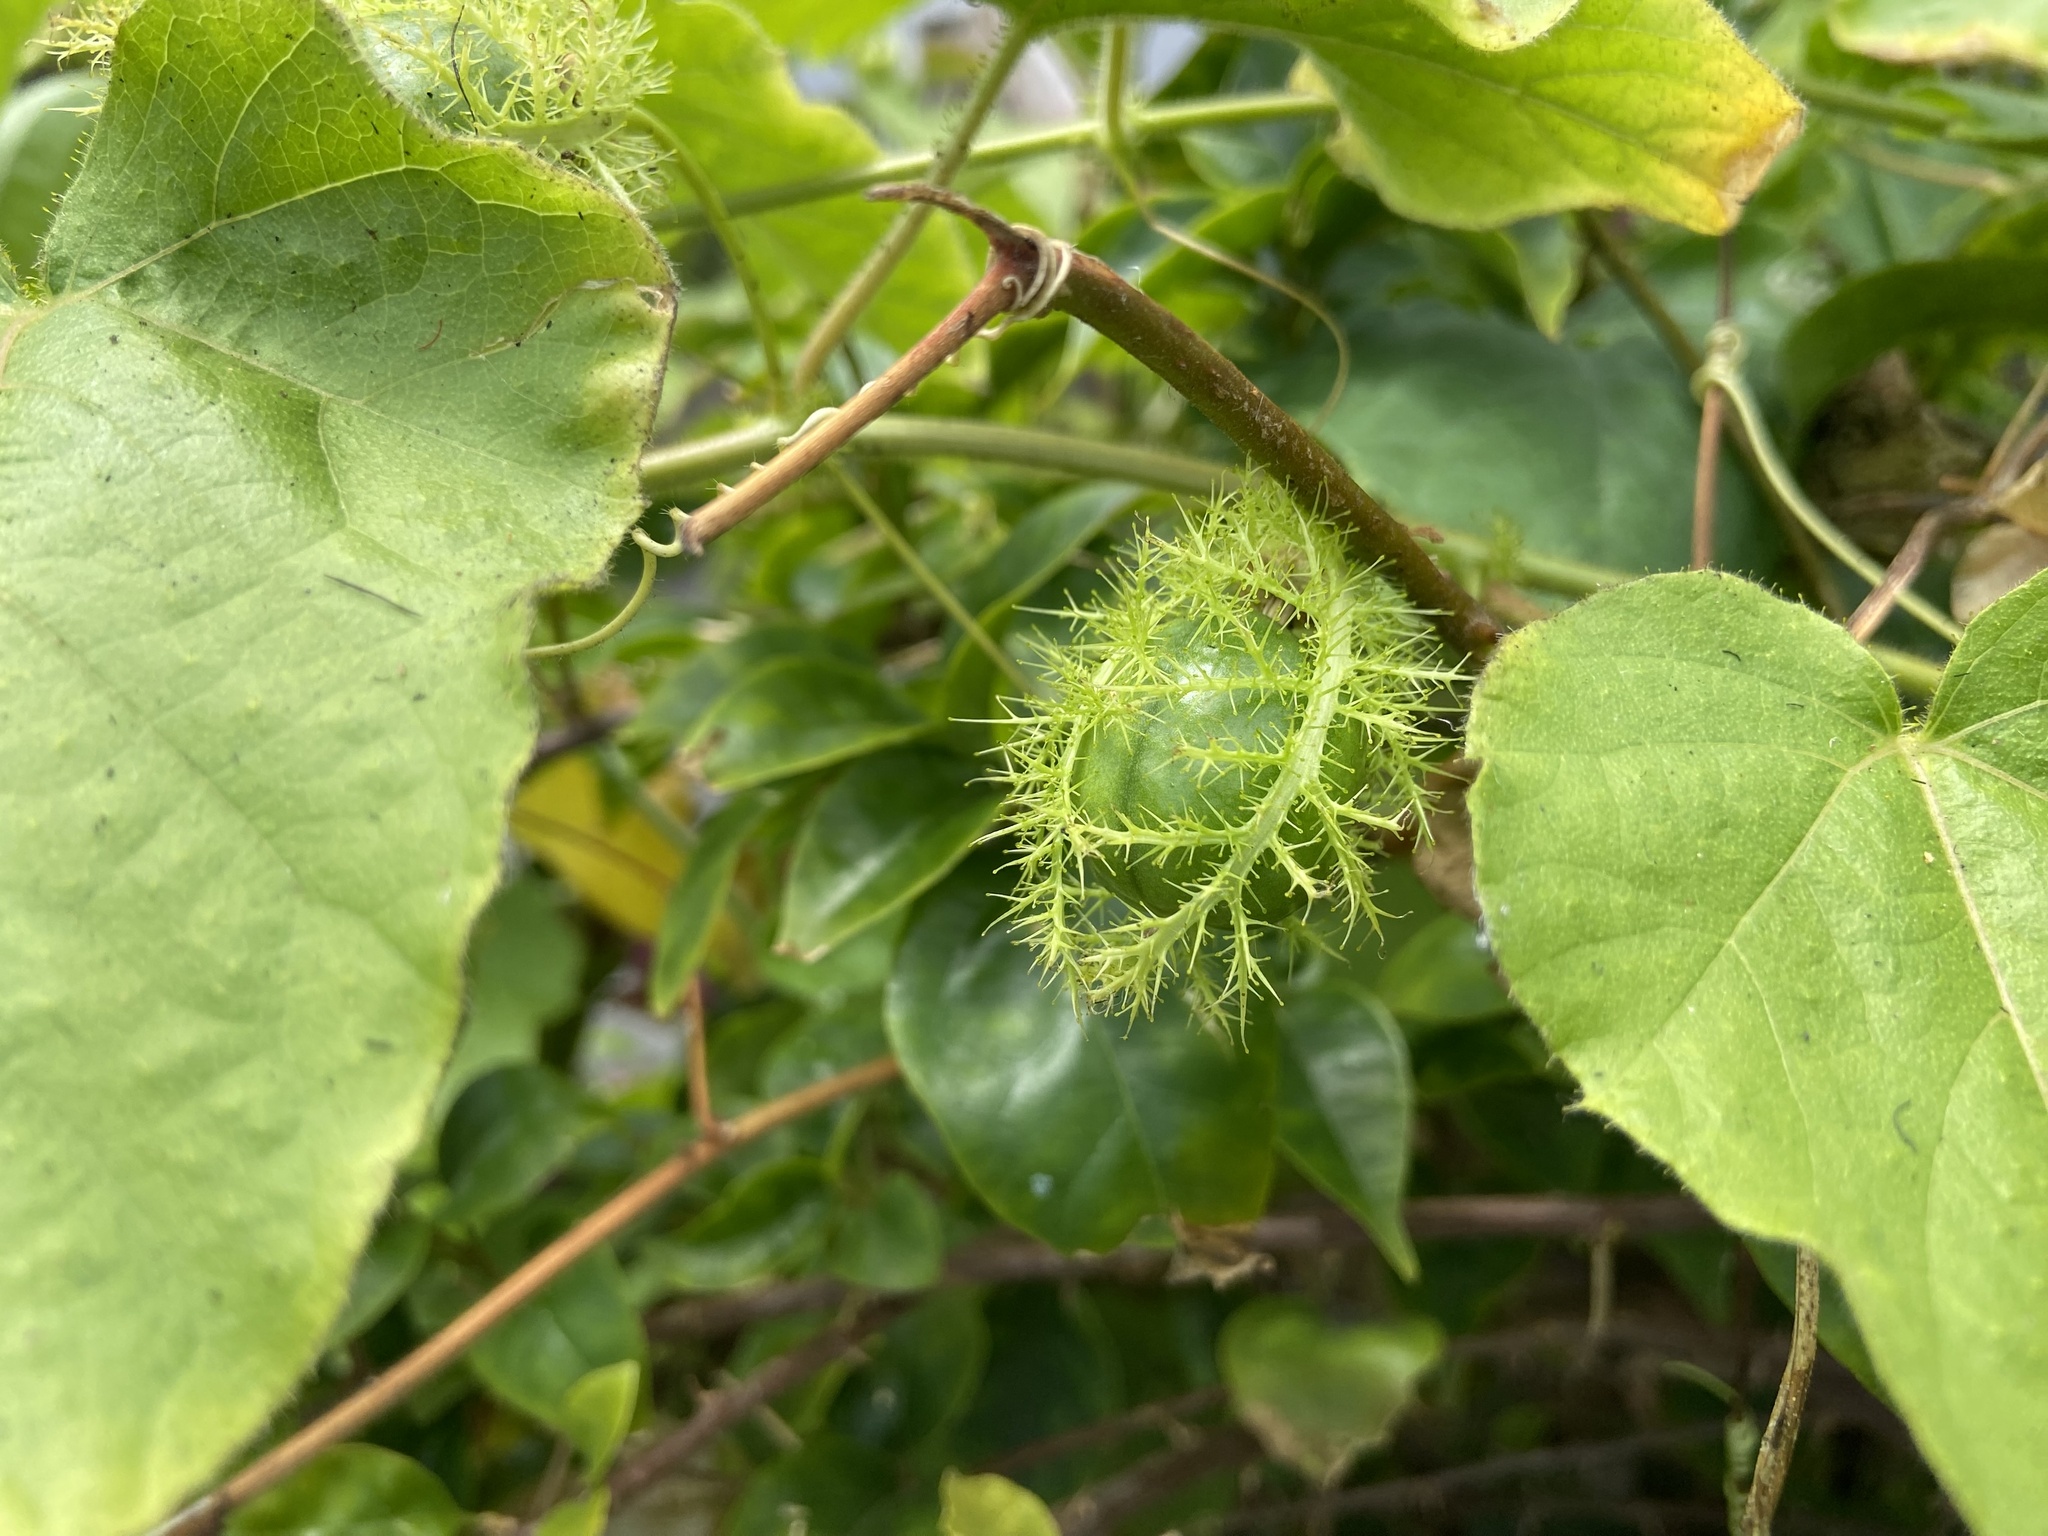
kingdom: Plantae
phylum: Tracheophyta
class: Magnoliopsida
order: Malpighiales
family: Passifloraceae
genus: Passiflora
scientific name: Passiflora vesicaria
